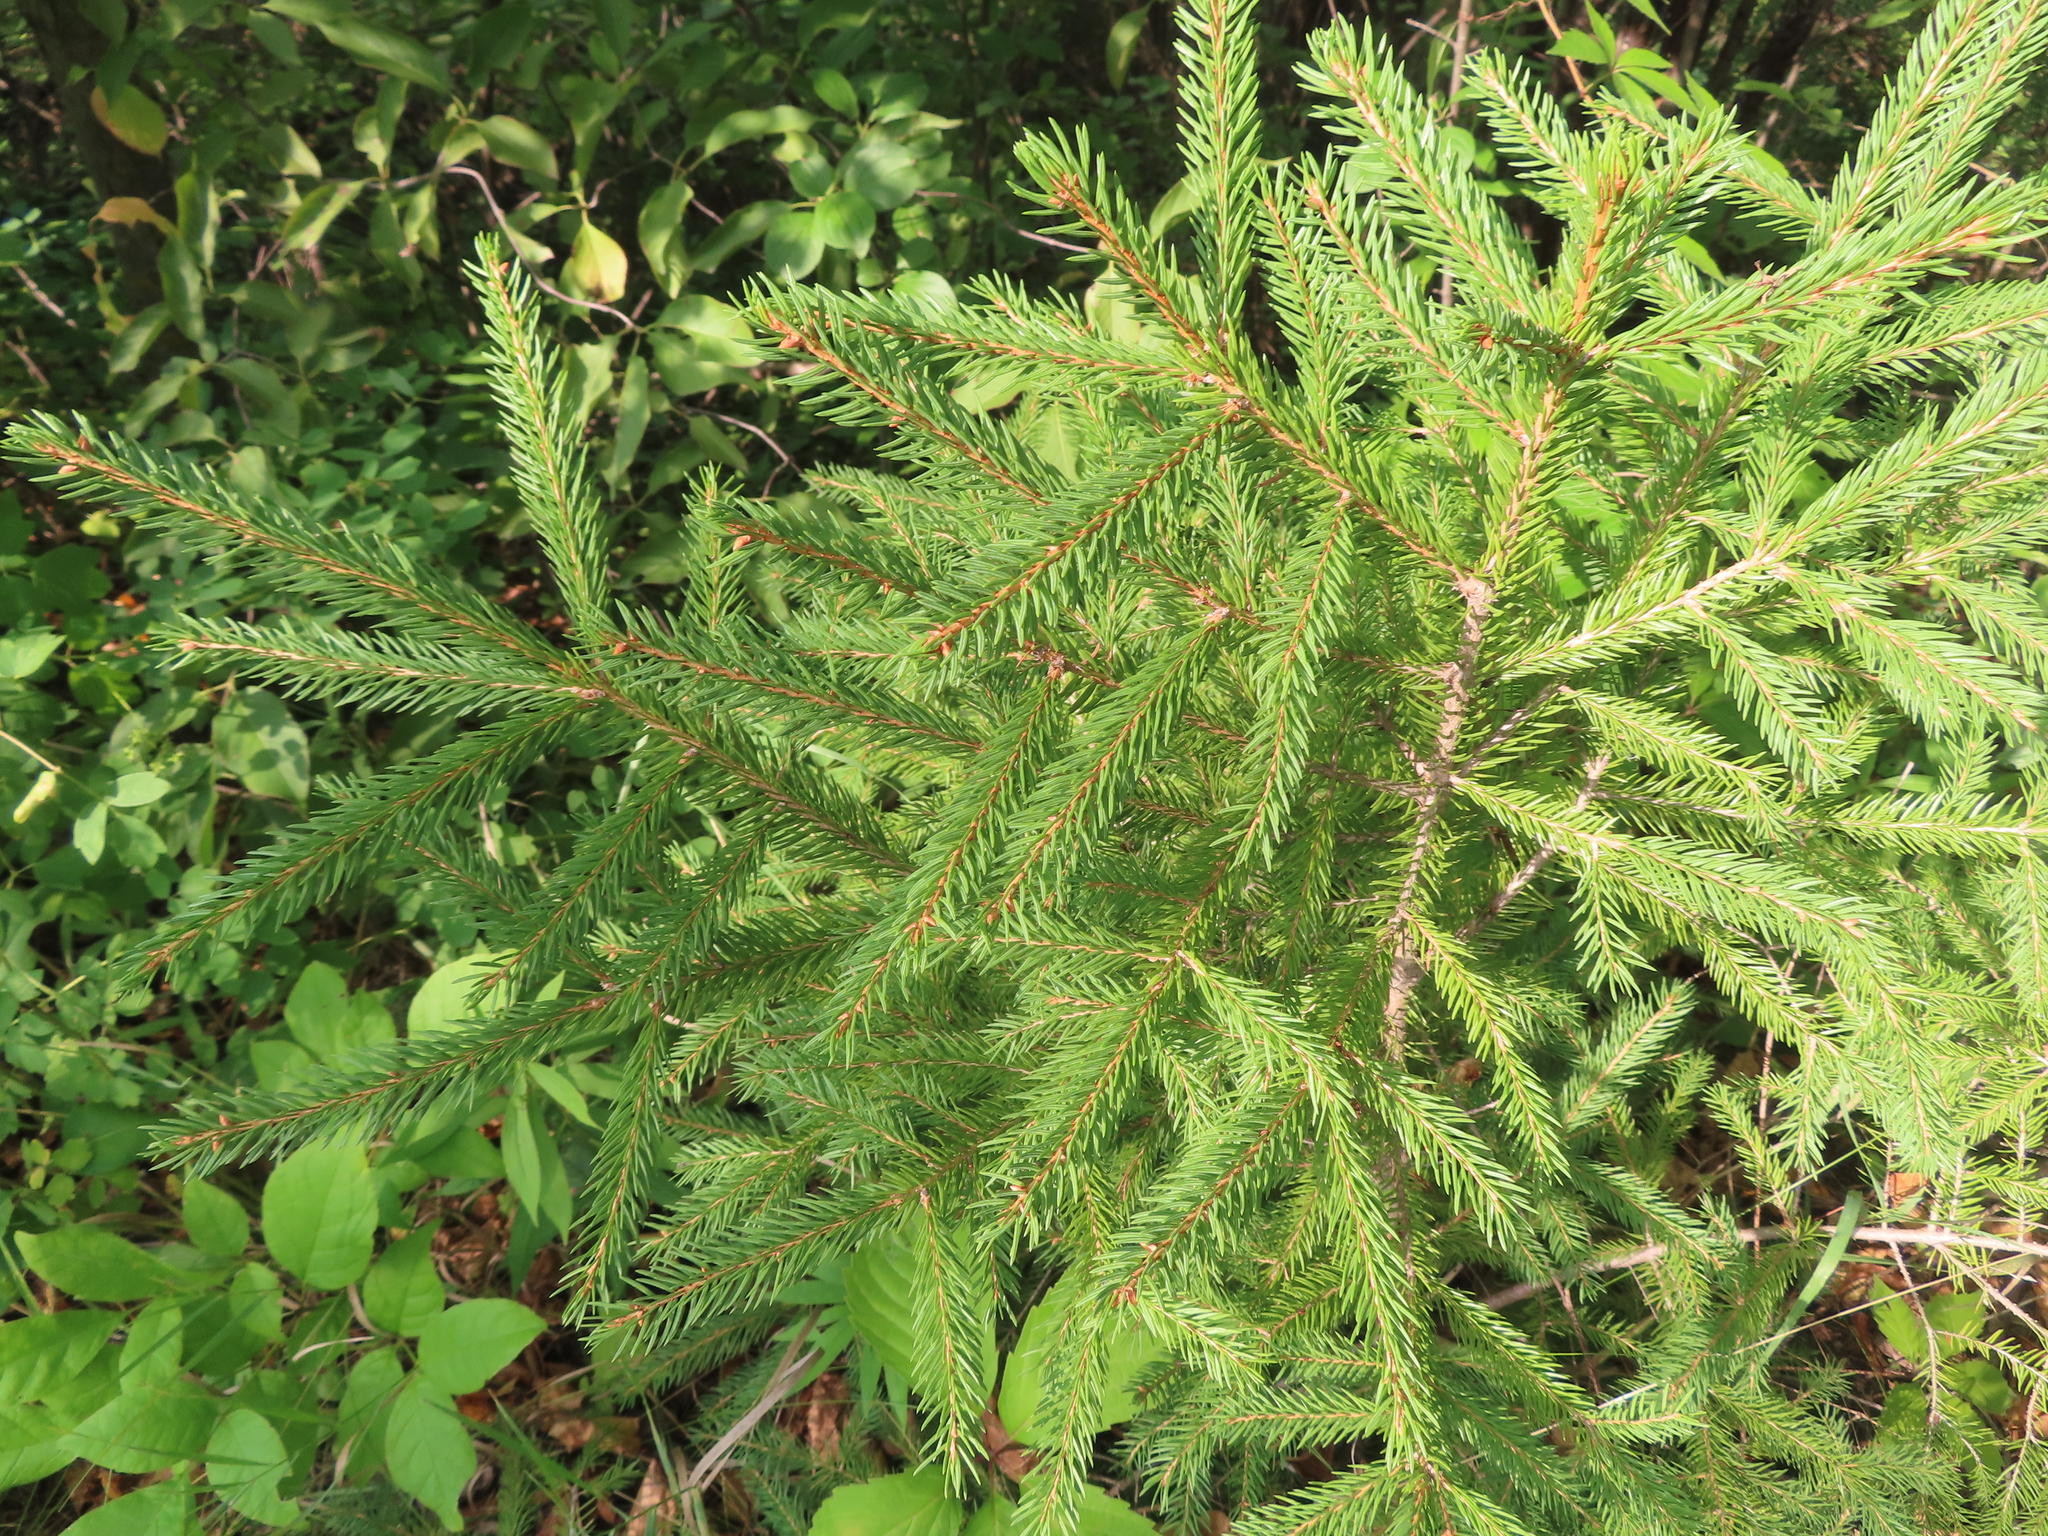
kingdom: Plantae
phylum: Tracheophyta
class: Pinopsida
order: Pinales
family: Pinaceae
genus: Picea
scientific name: Picea glauca
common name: White spruce
